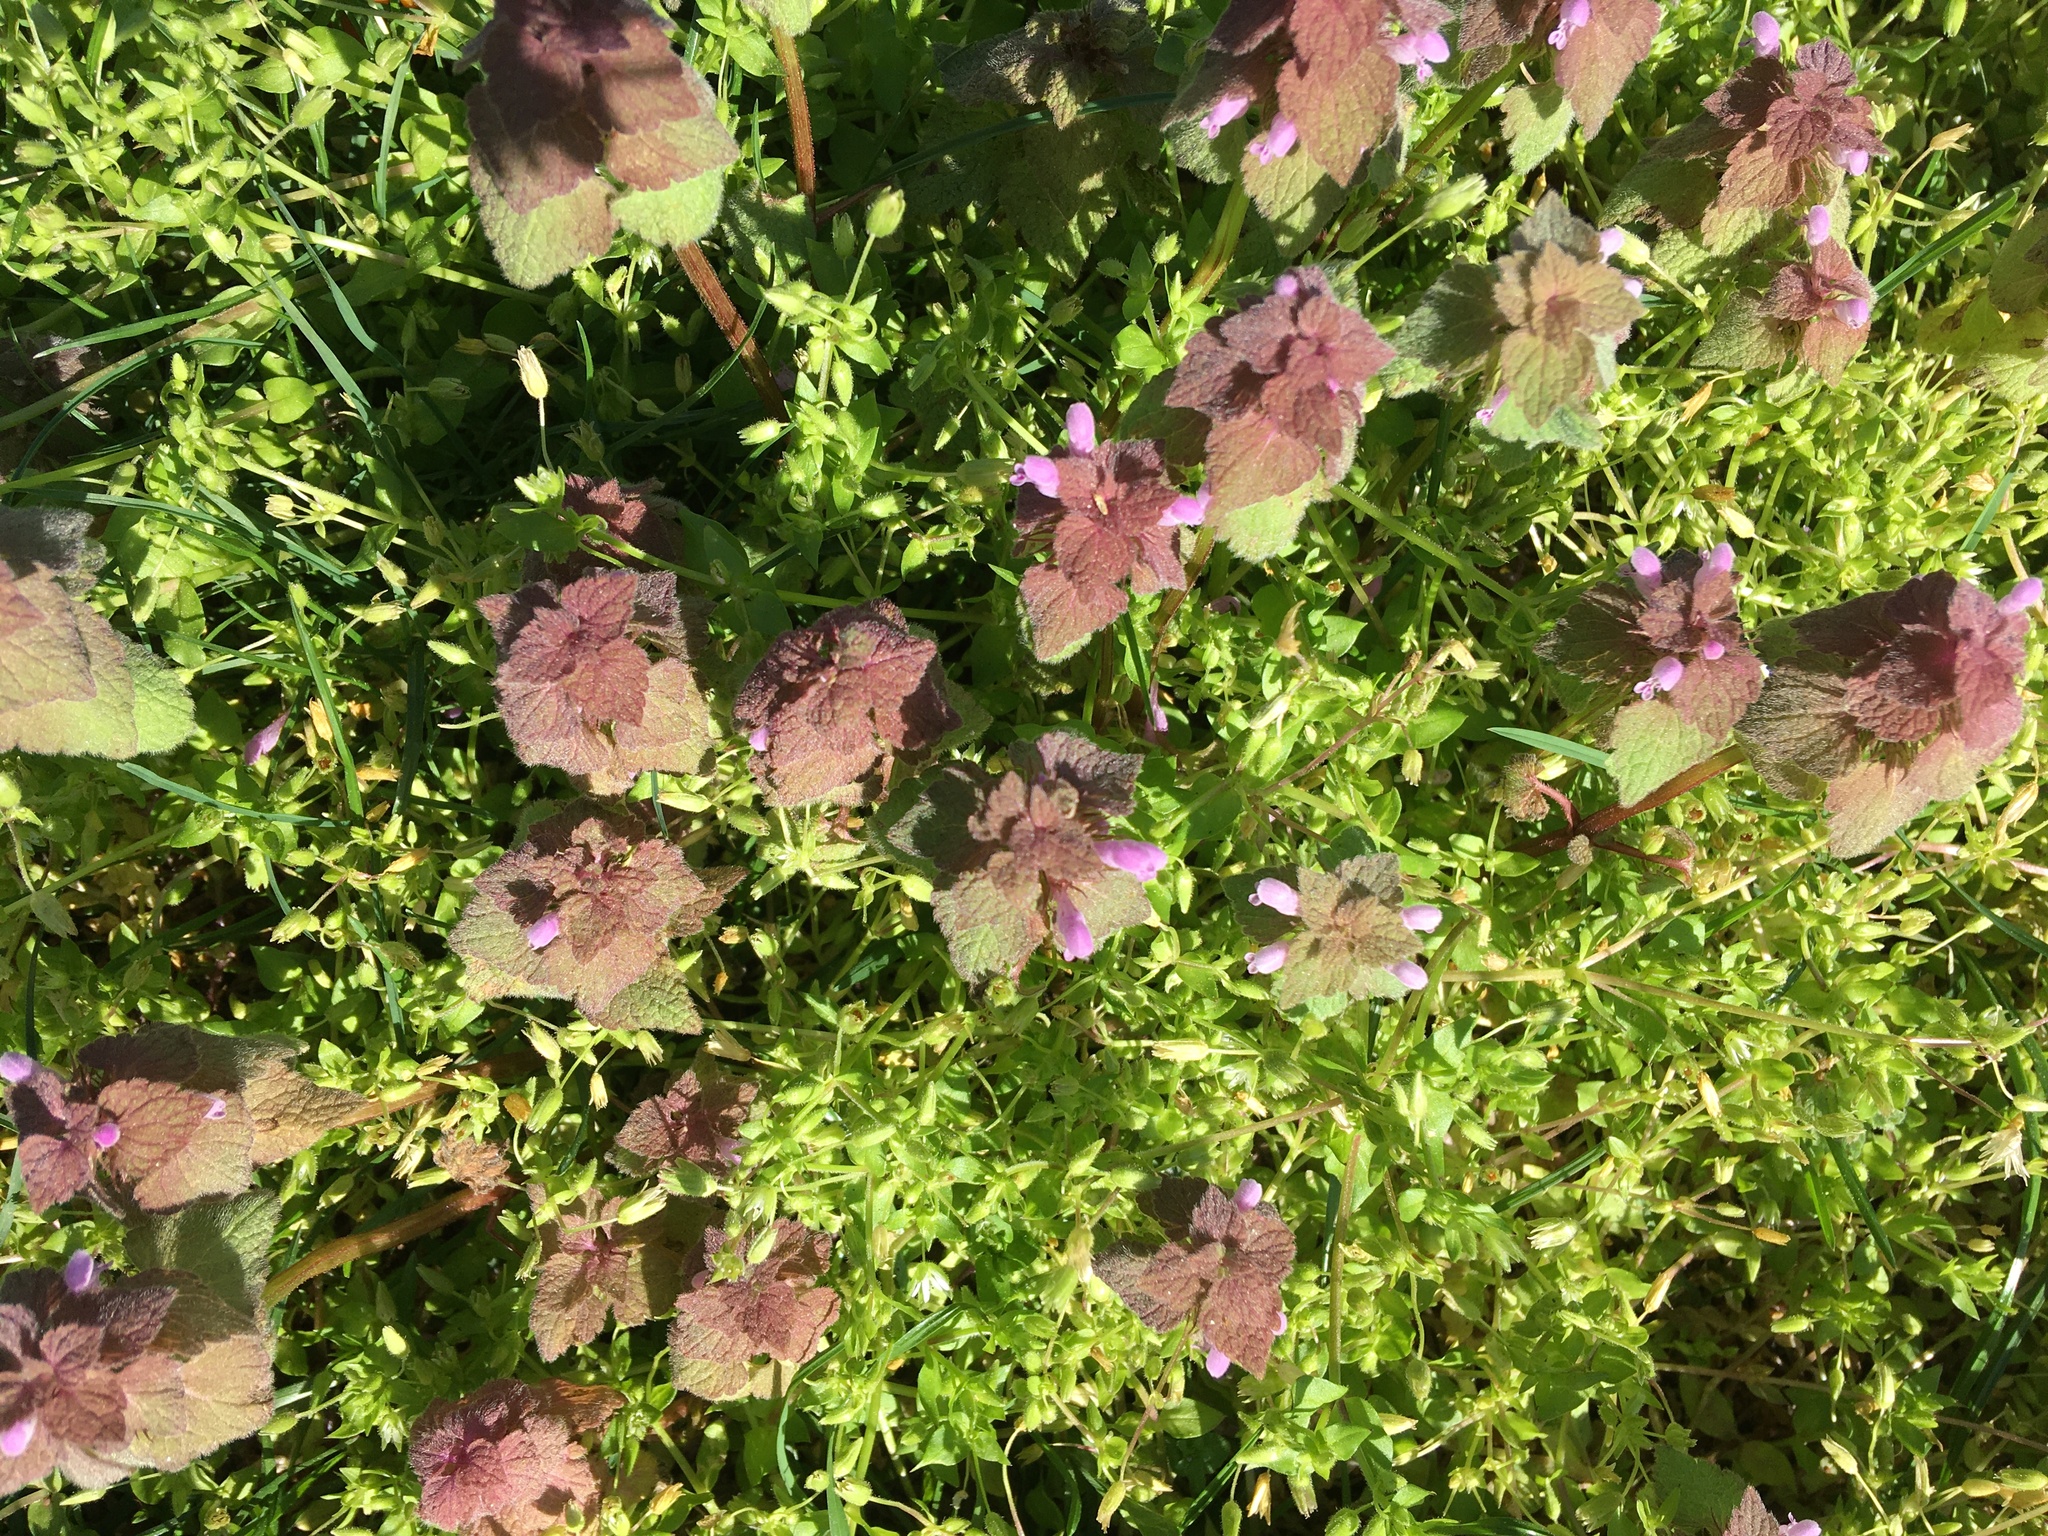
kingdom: Plantae
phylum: Tracheophyta
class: Magnoliopsida
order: Lamiales
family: Lamiaceae
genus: Lamium
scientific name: Lamium purpureum
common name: Red dead-nettle
